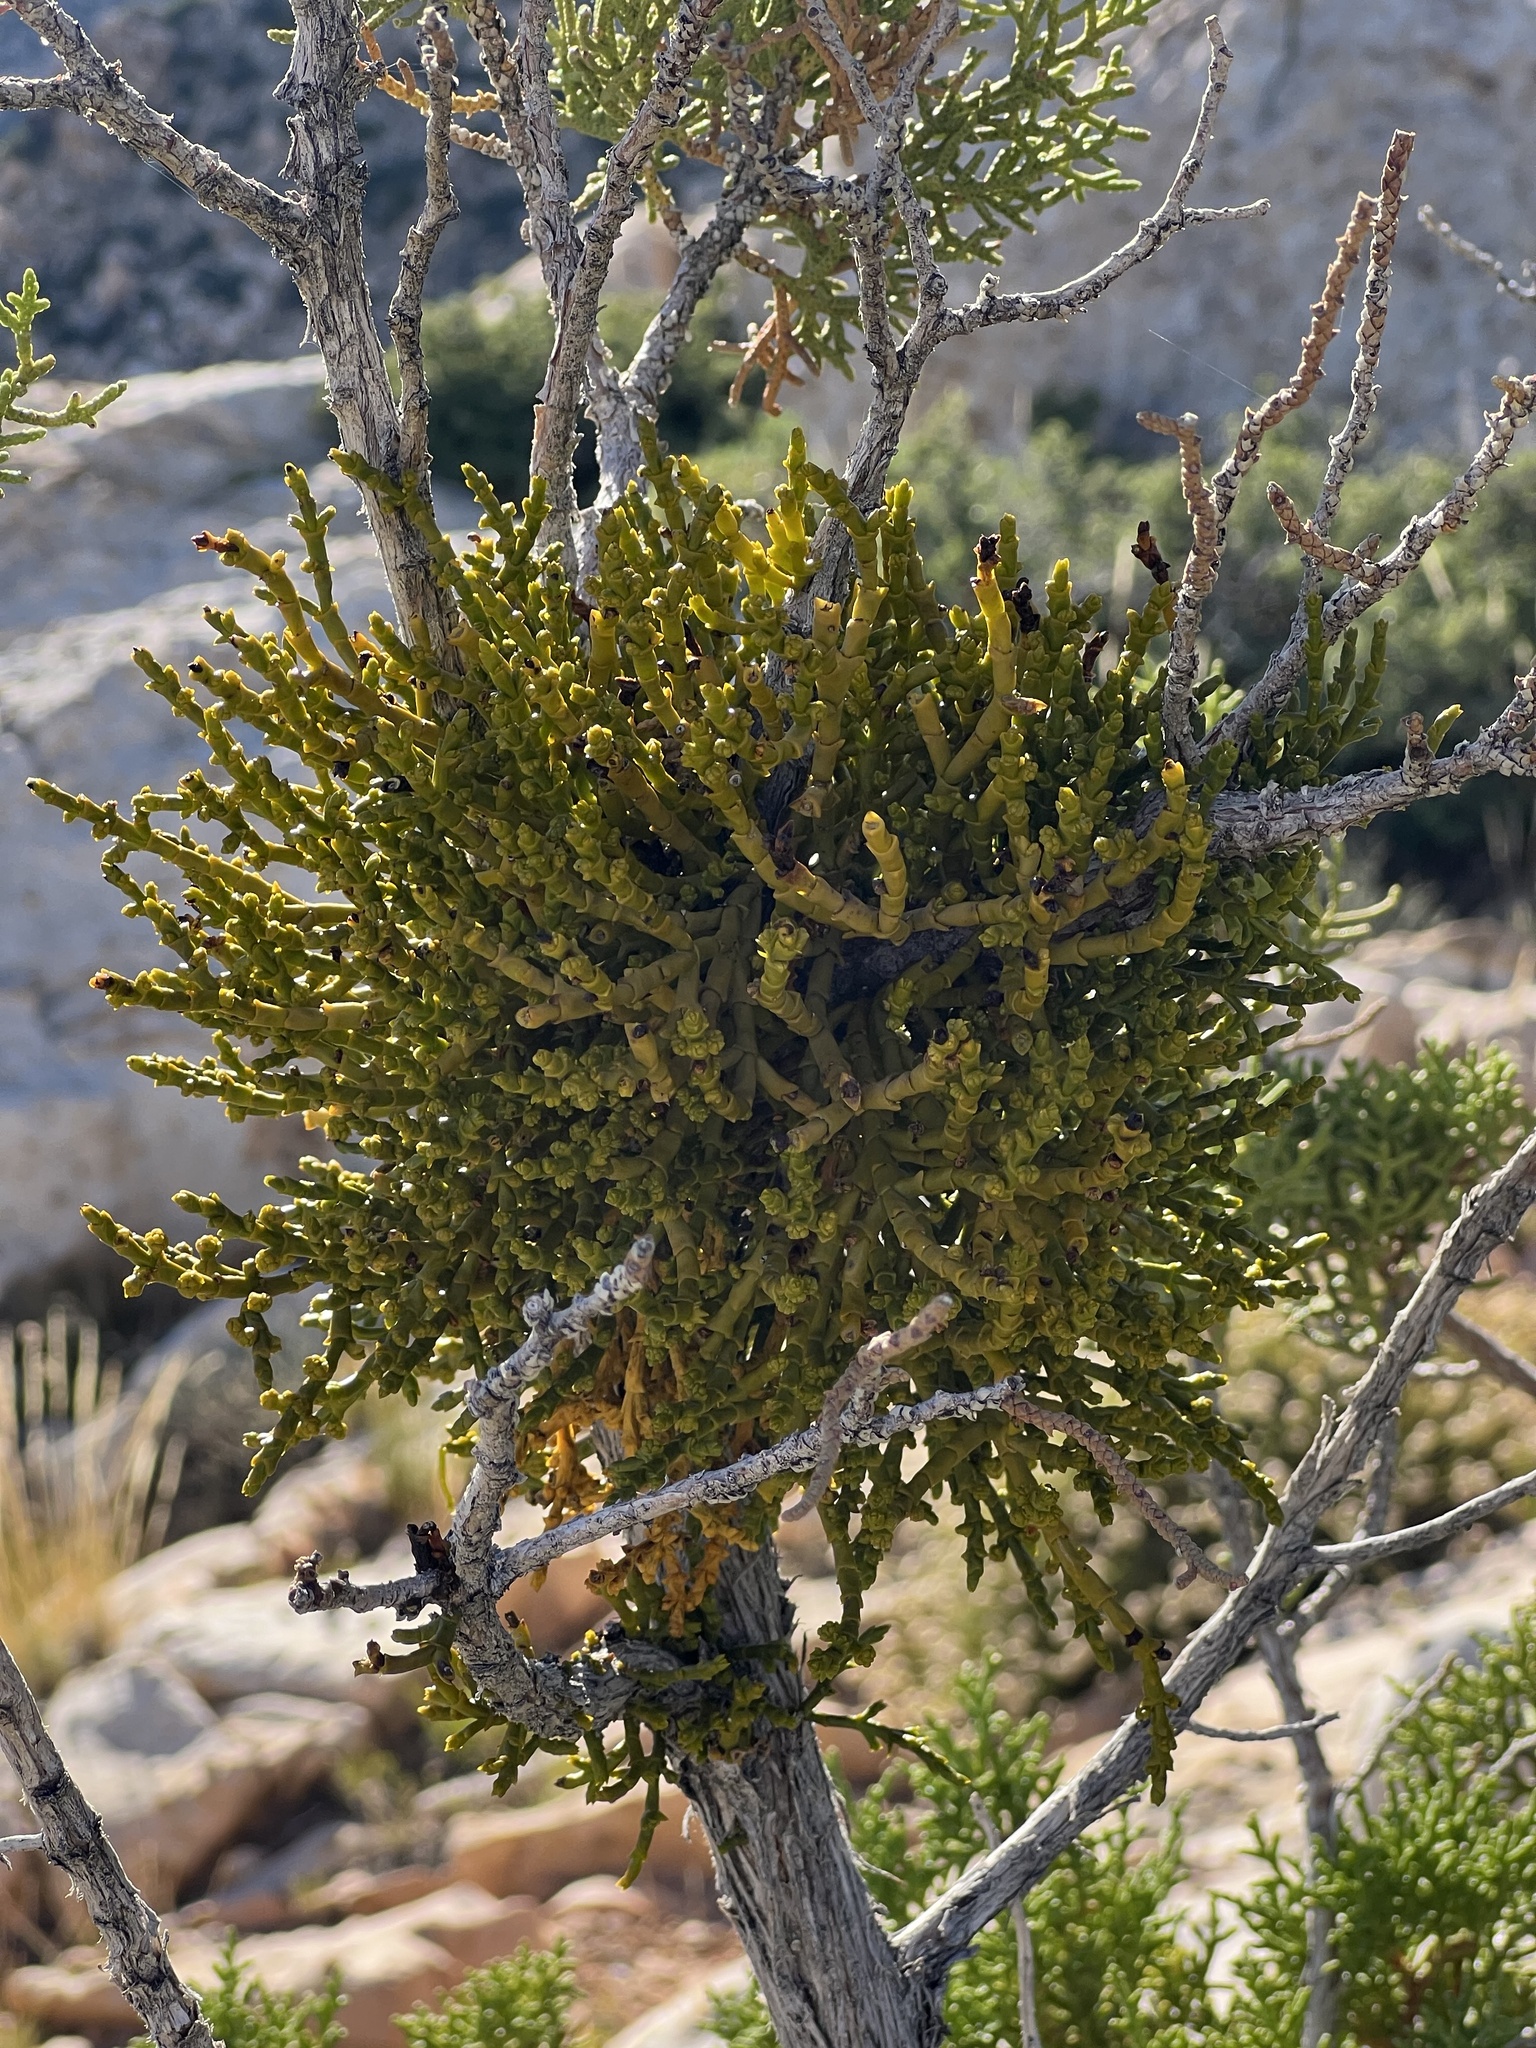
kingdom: Plantae
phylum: Tracheophyta
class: Magnoliopsida
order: Santalales
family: Viscaceae
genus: Phoradendron
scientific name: Phoradendron juniperinum
